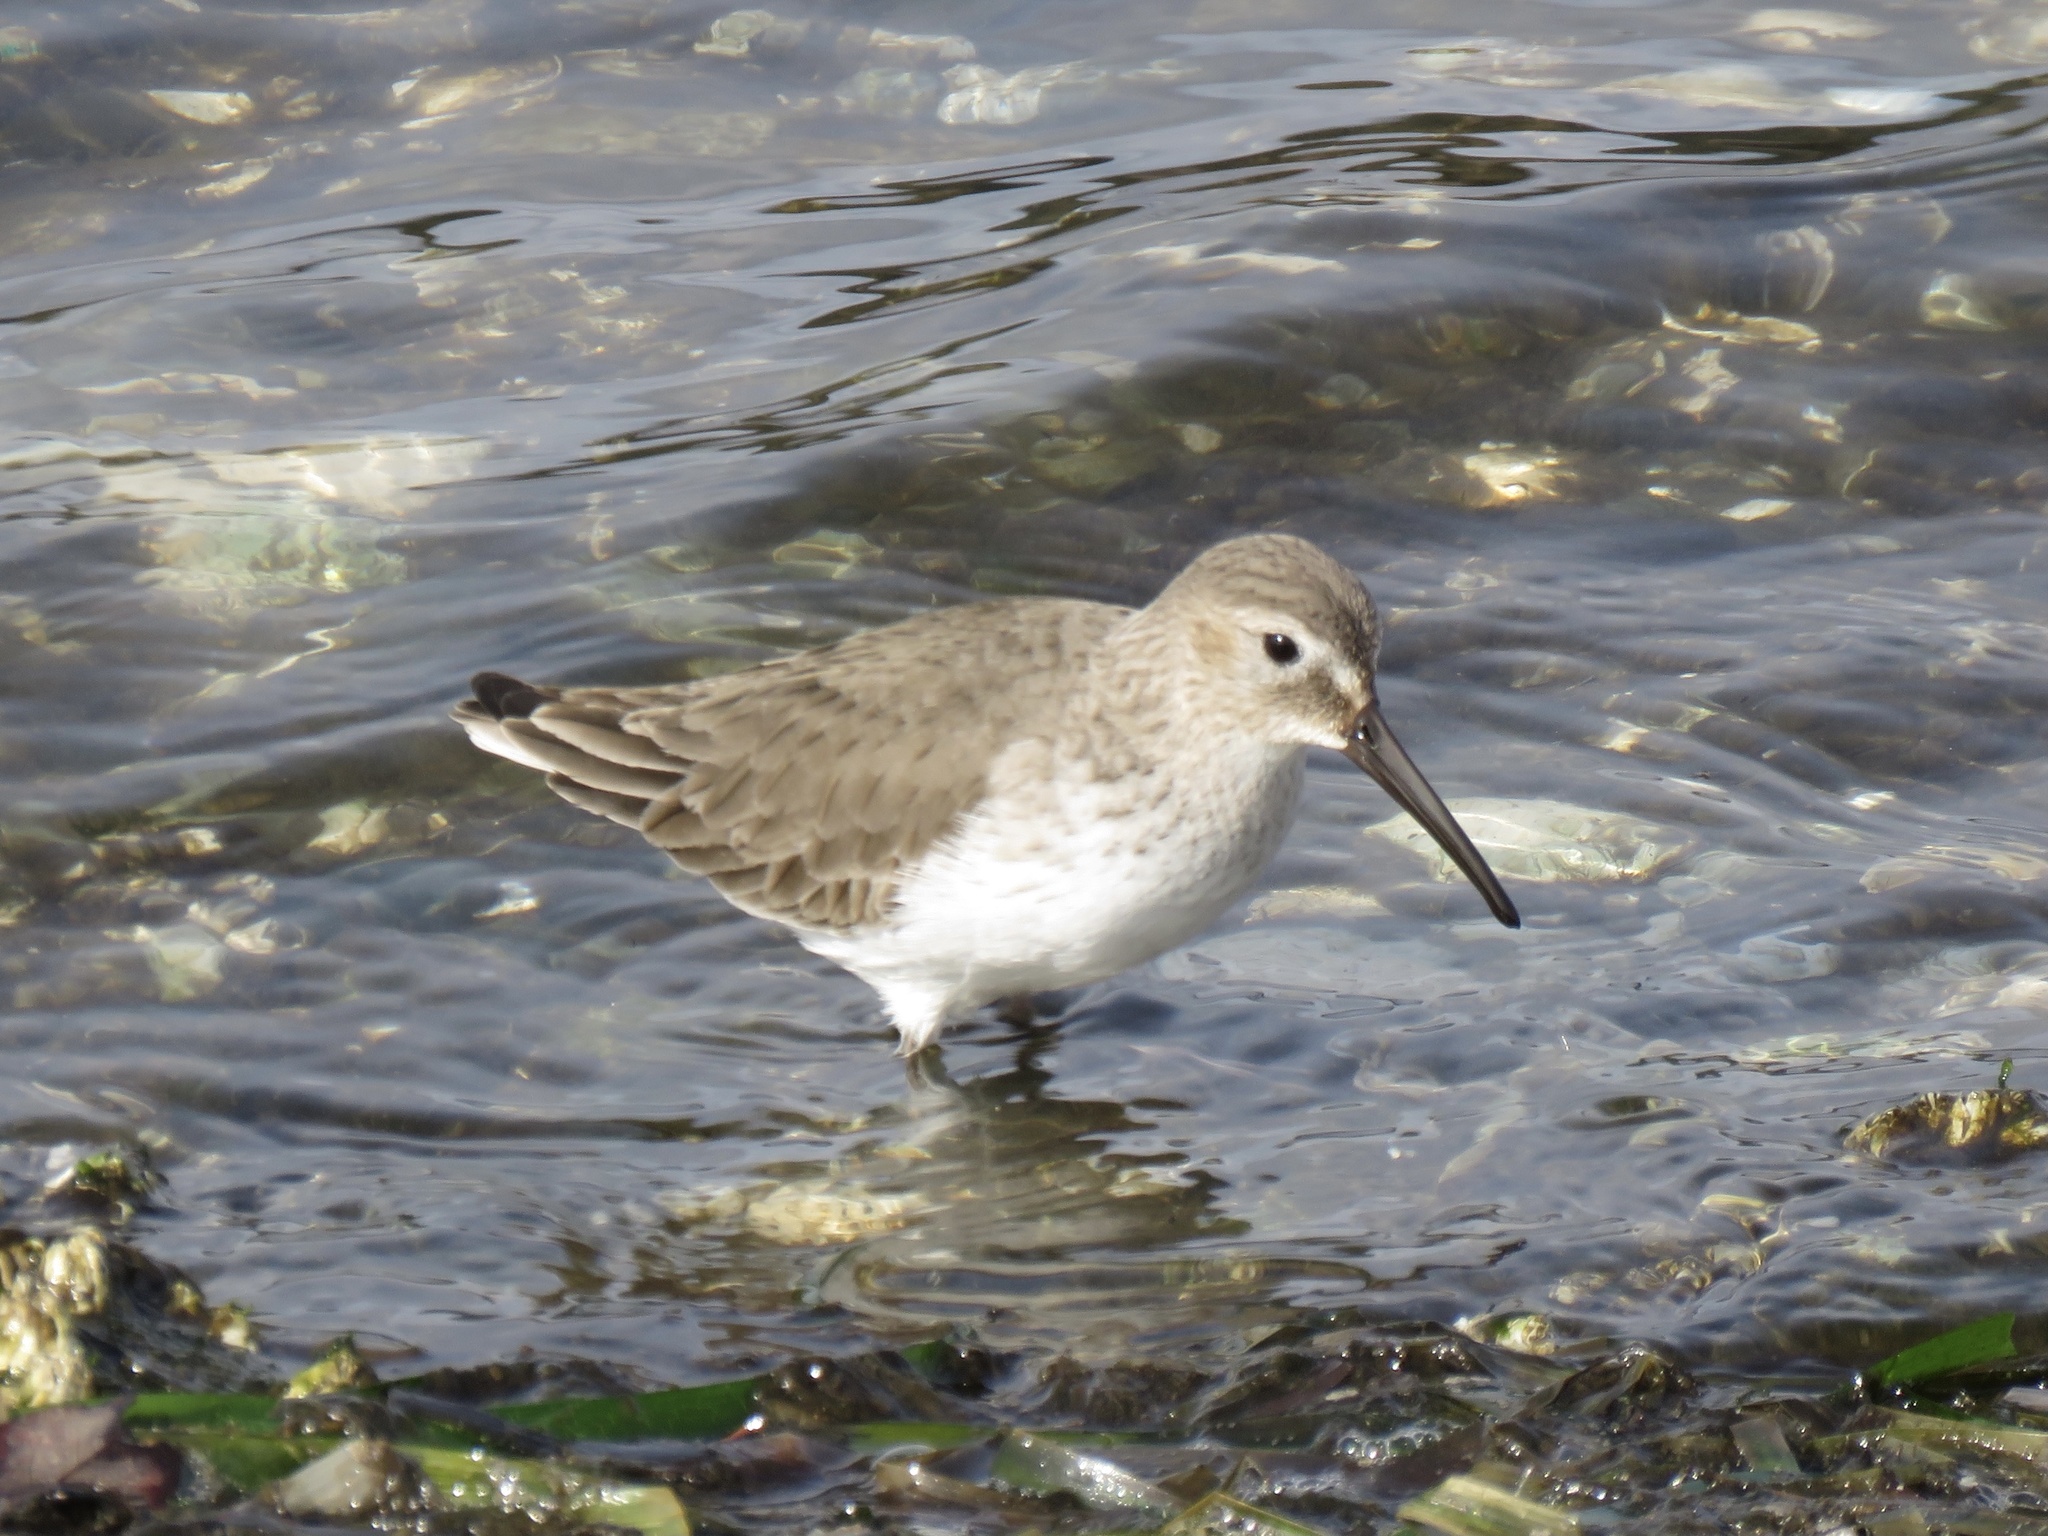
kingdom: Animalia
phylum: Chordata
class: Aves
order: Charadriiformes
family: Scolopacidae
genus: Calidris
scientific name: Calidris alpina
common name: Dunlin
